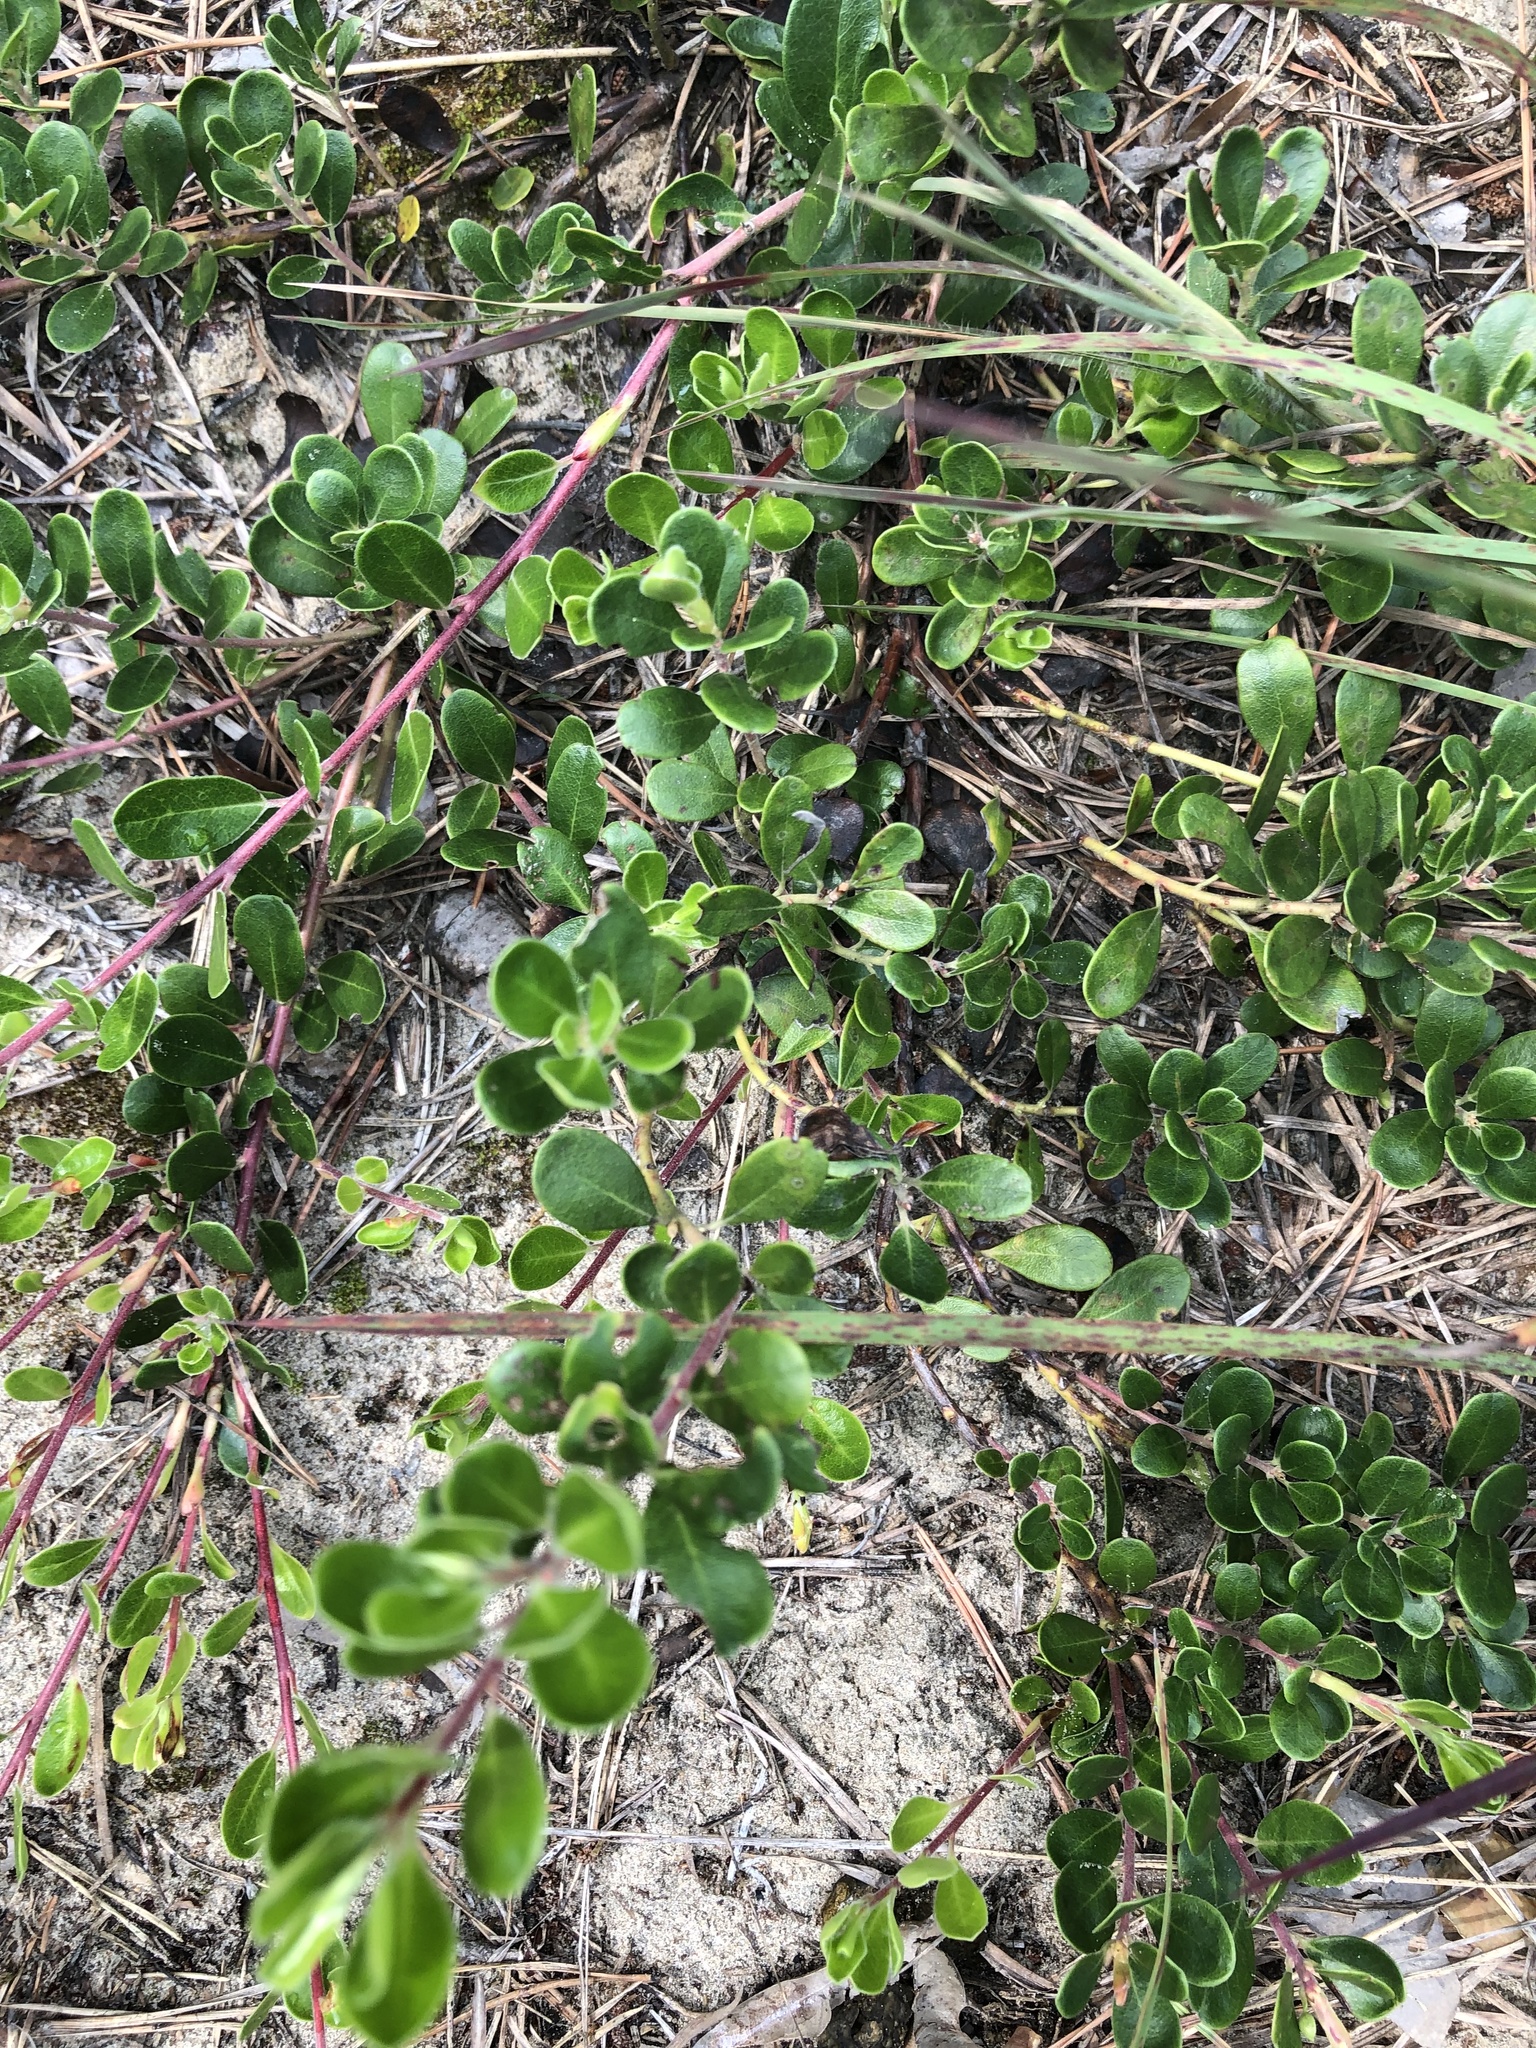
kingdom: Plantae
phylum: Tracheophyta
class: Magnoliopsida
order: Ericales
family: Ericaceae
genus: Arctostaphylos
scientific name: Arctostaphylos uva-ursi
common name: Bearberry
